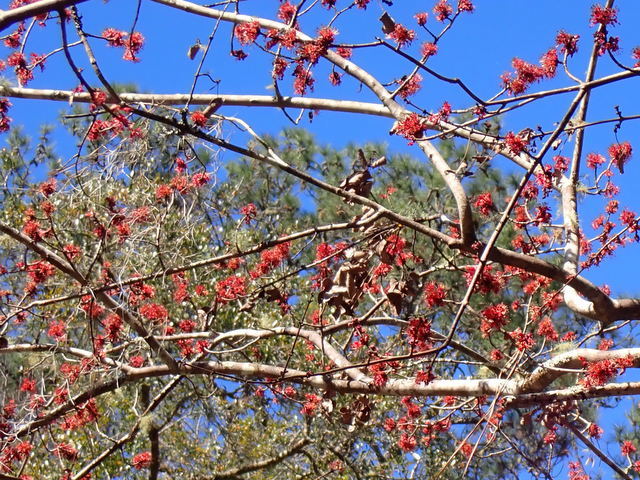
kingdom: Plantae
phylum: Tracheophyta
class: Magnoliopsida
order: Sapindales
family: Sapindaceae
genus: Acer
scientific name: Acer rubrum
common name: Red maple
